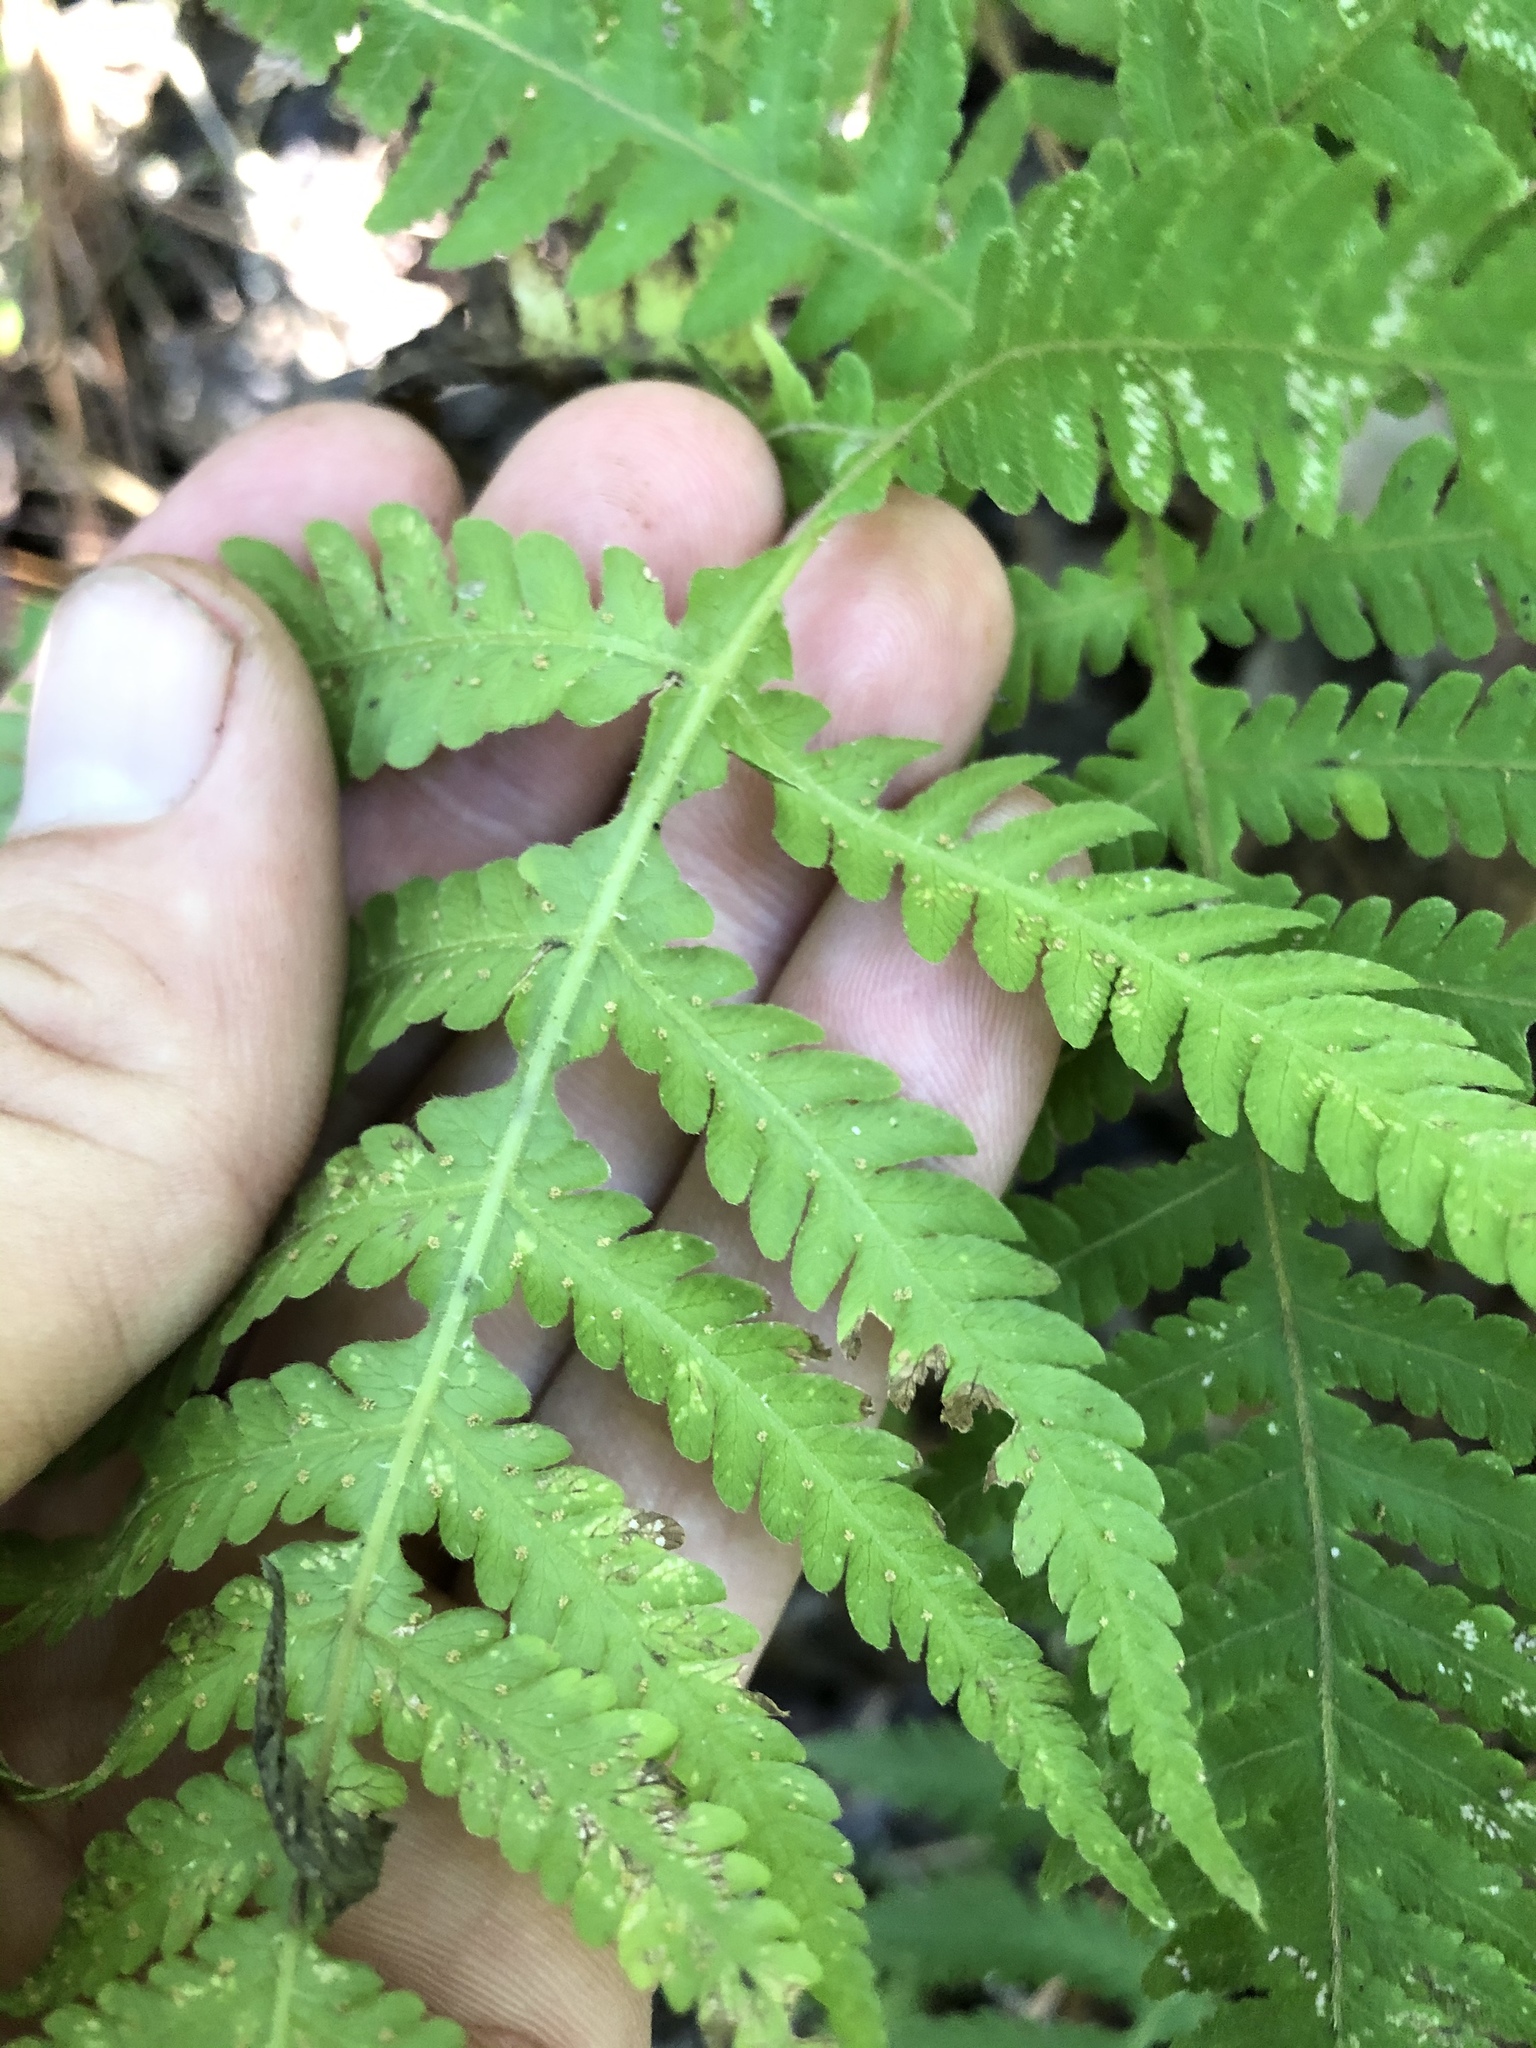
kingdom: Plantae
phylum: Tracheophyta
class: Polypodiopsida
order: Polypodiales
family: Thelypteridaceae
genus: Phegopteris
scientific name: Phegopteris hexagonoptera
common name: Broad beech fern
